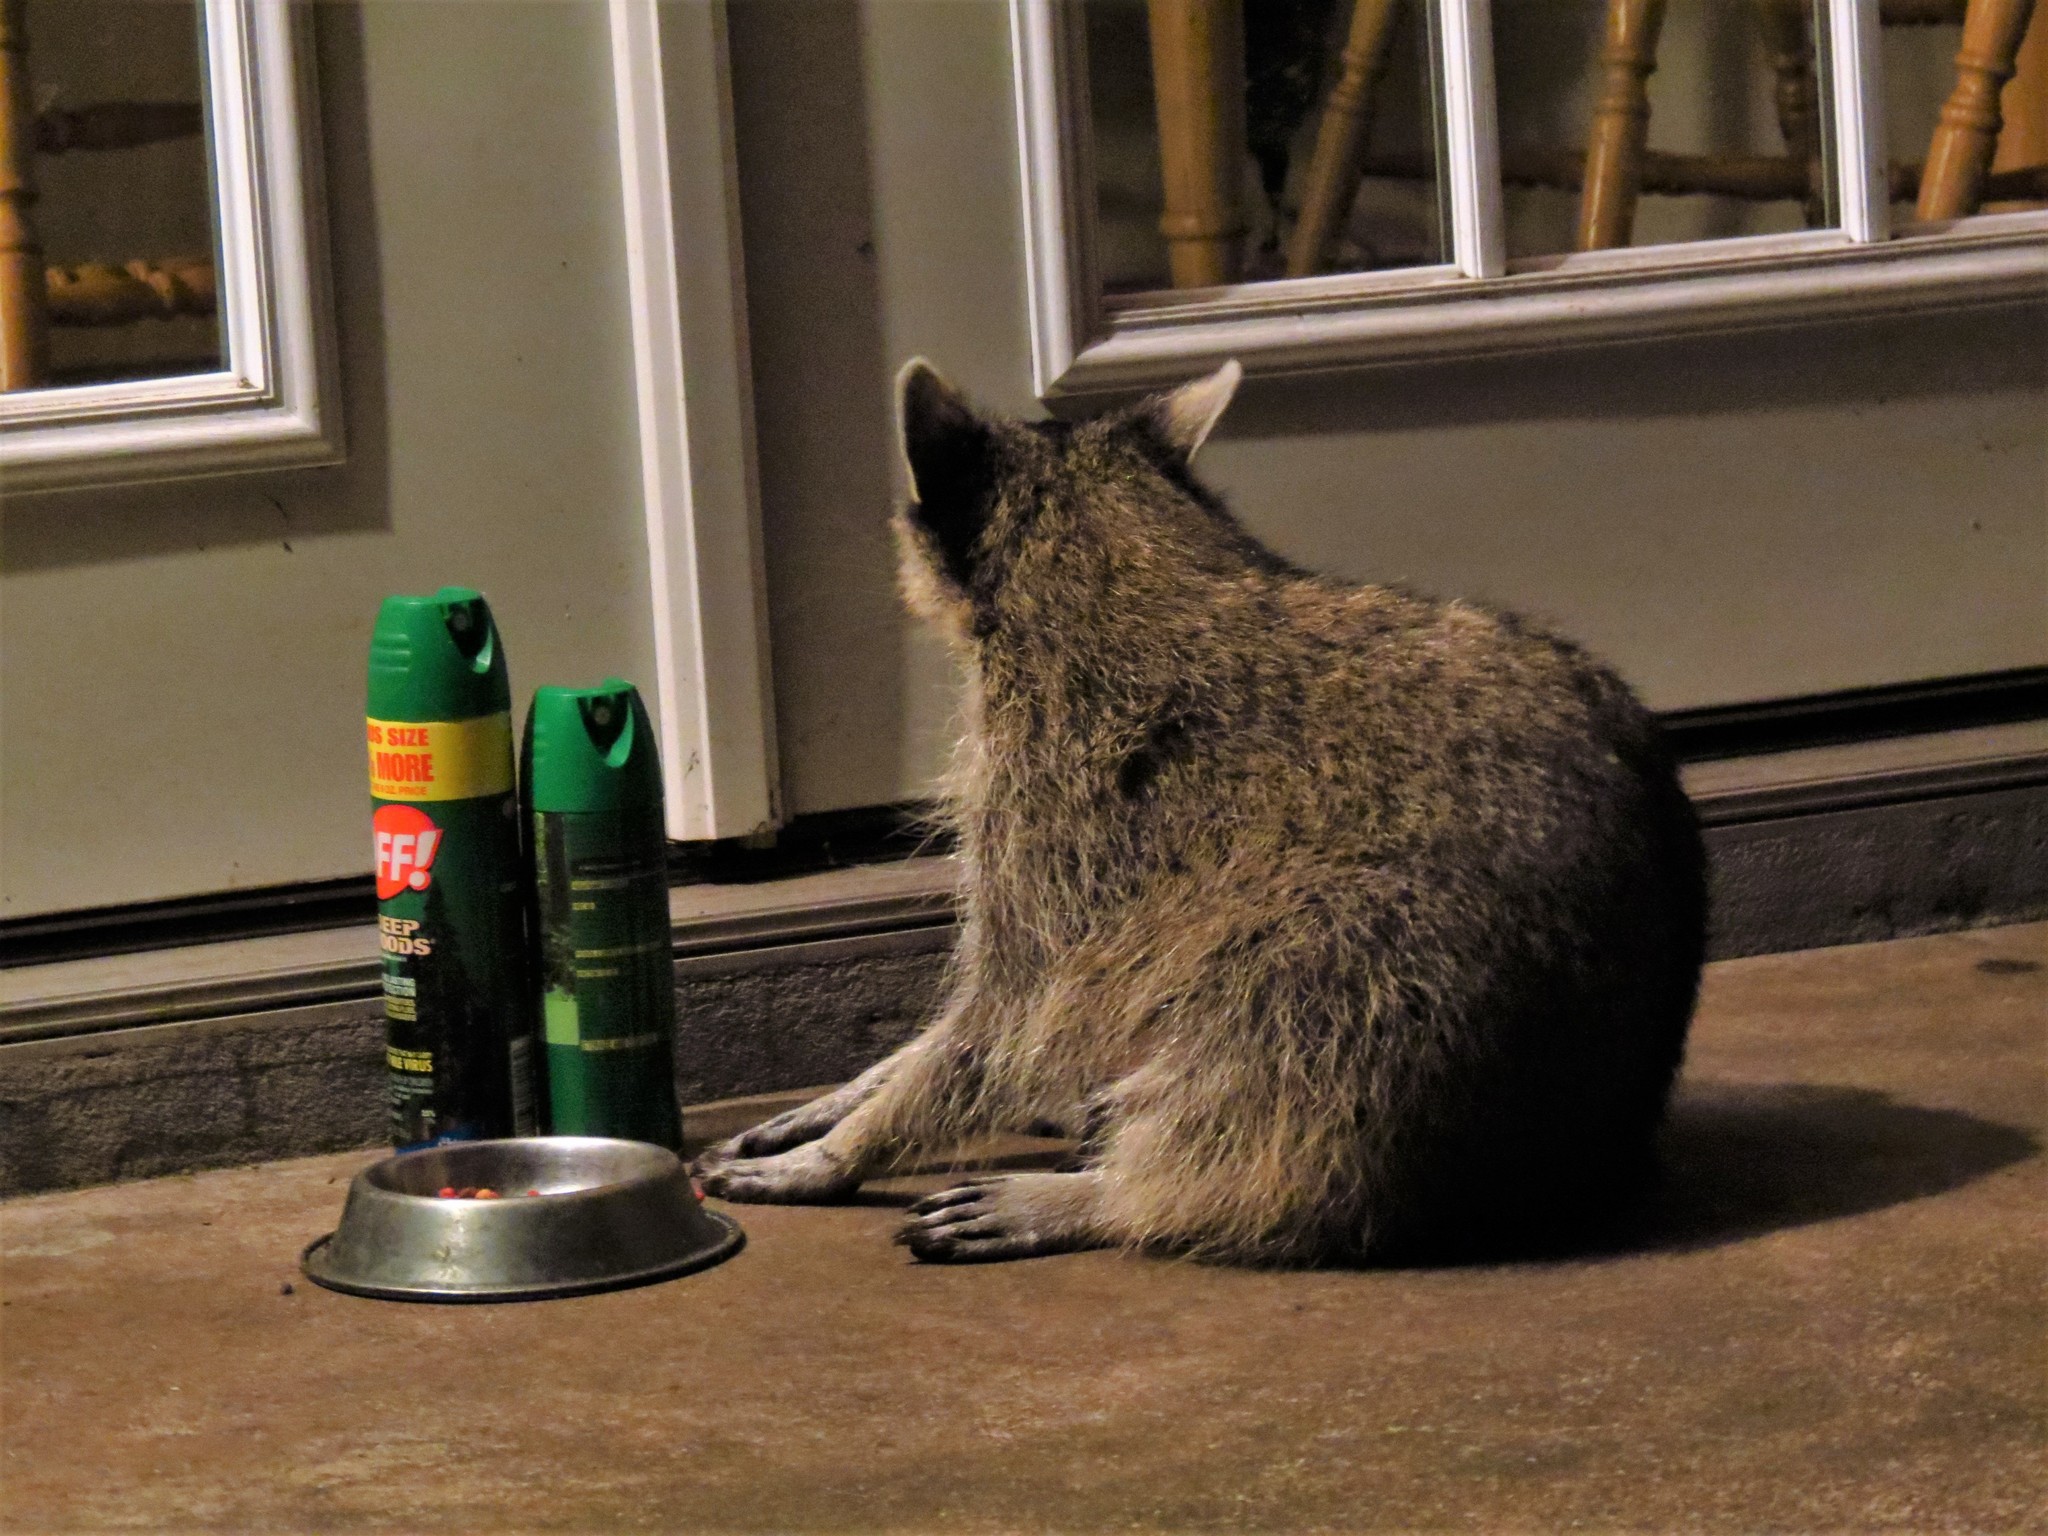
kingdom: Animalia
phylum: Chordata
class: Mammalia
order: Carnivora
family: Procyonidae
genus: Procyon
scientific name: Procyon lotor
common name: Raccoon
